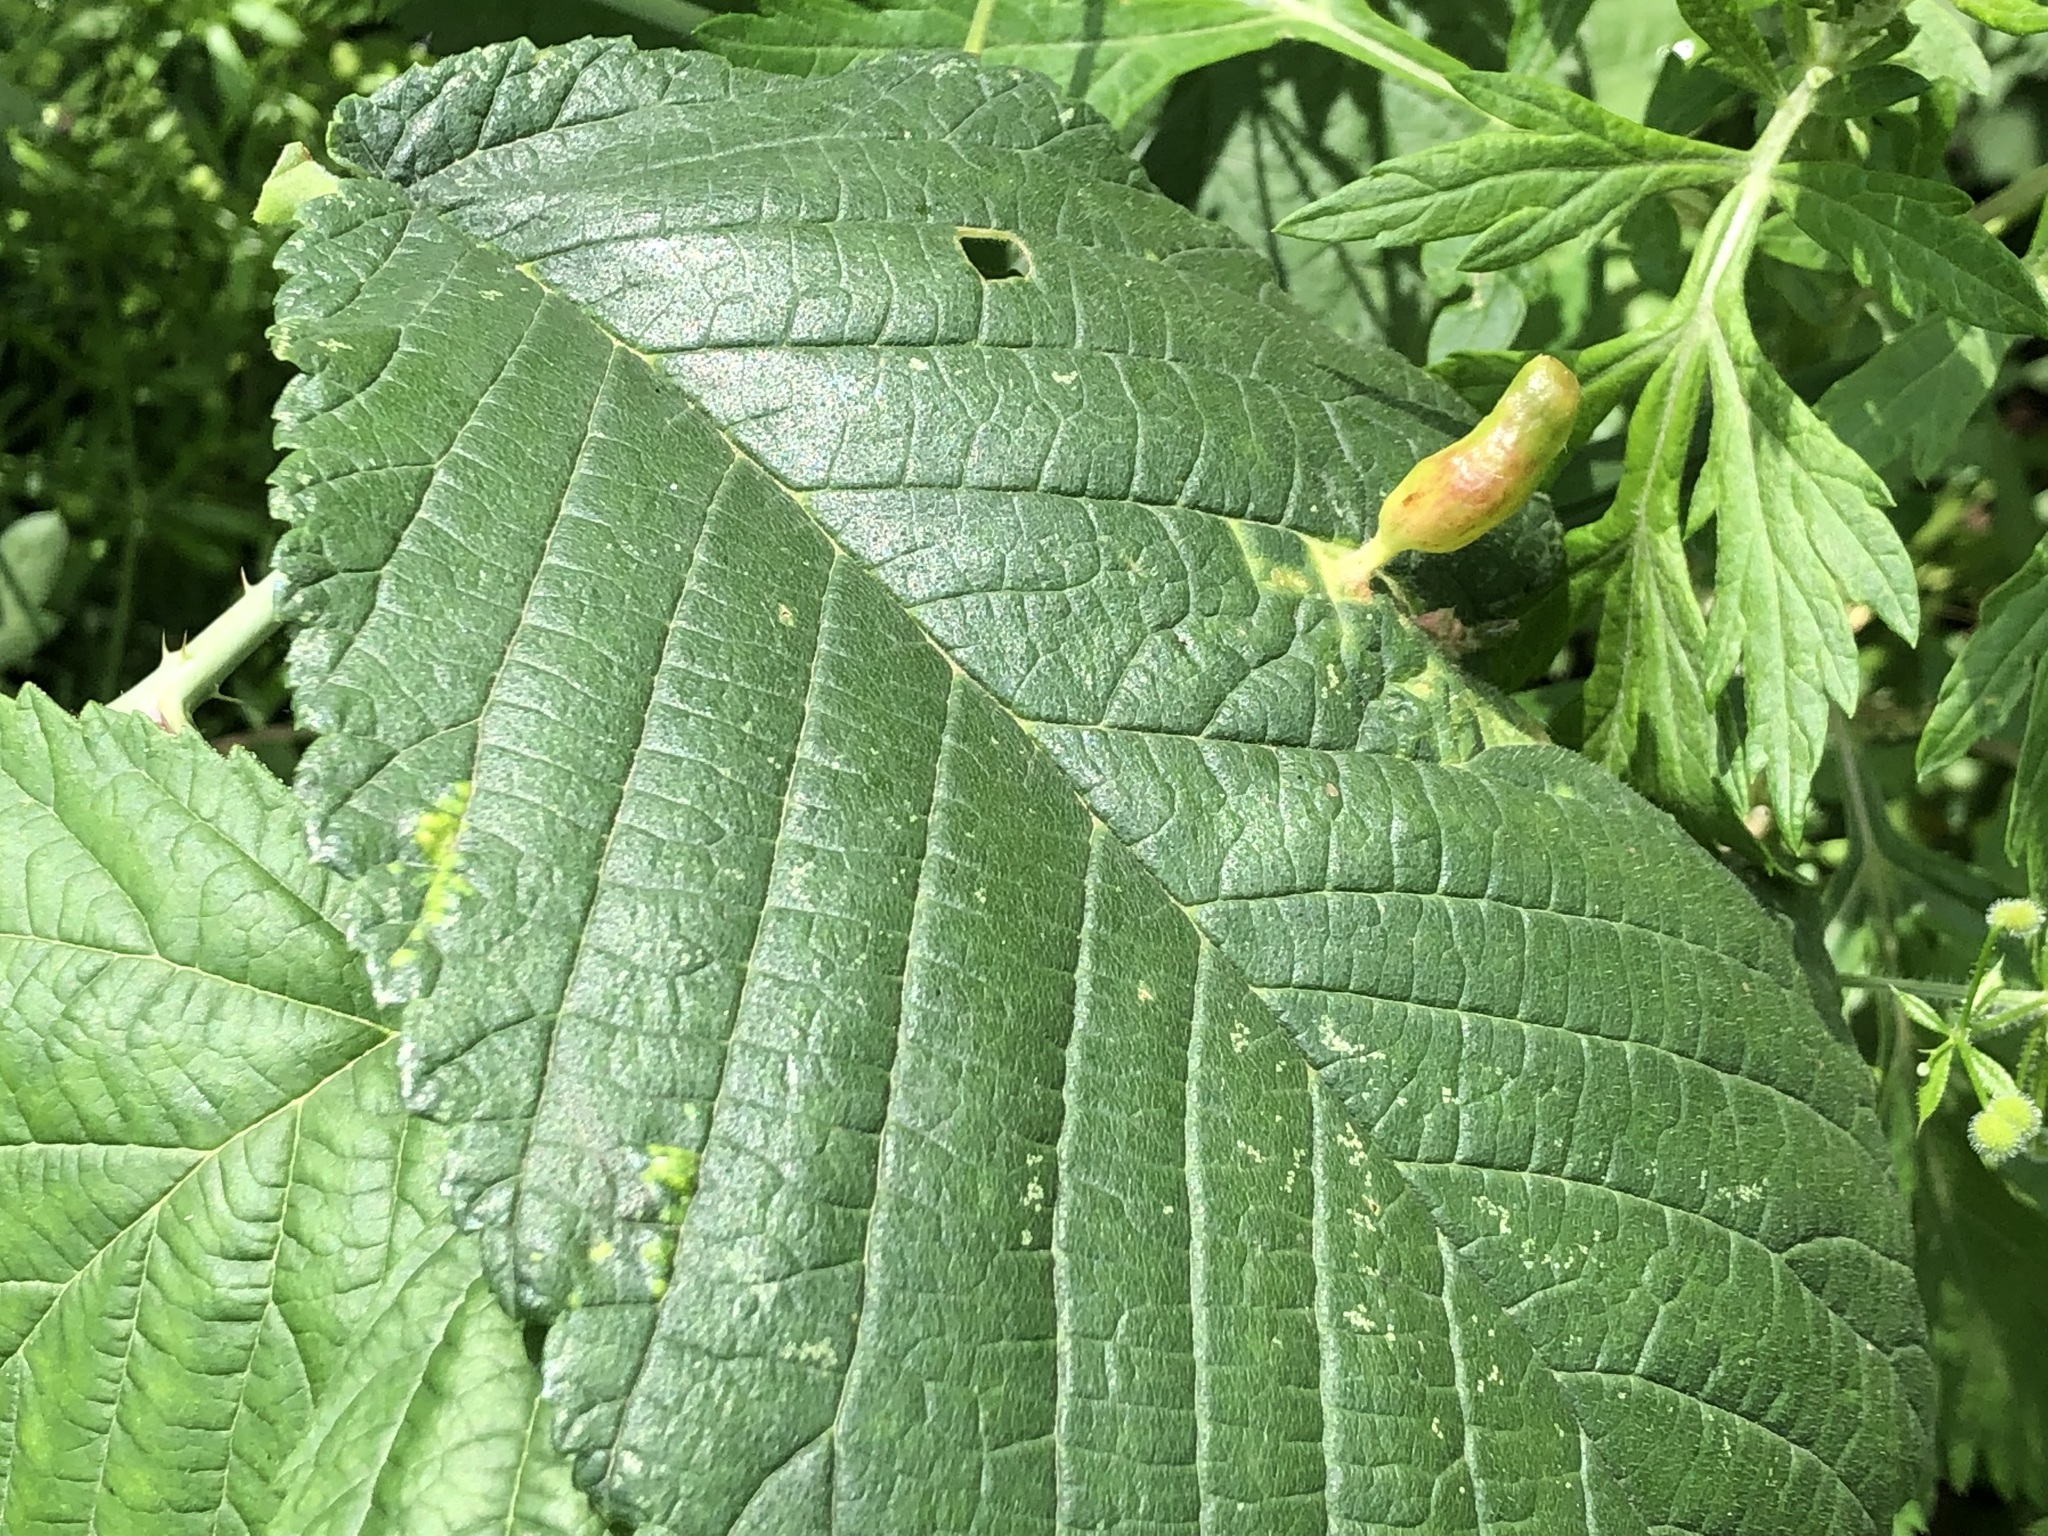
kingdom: Animalia
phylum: Arthropoda
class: Insecta
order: Hemiptera
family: Aphididae
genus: Tetraneura
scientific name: Tetraneura ulmi
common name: Aphid
